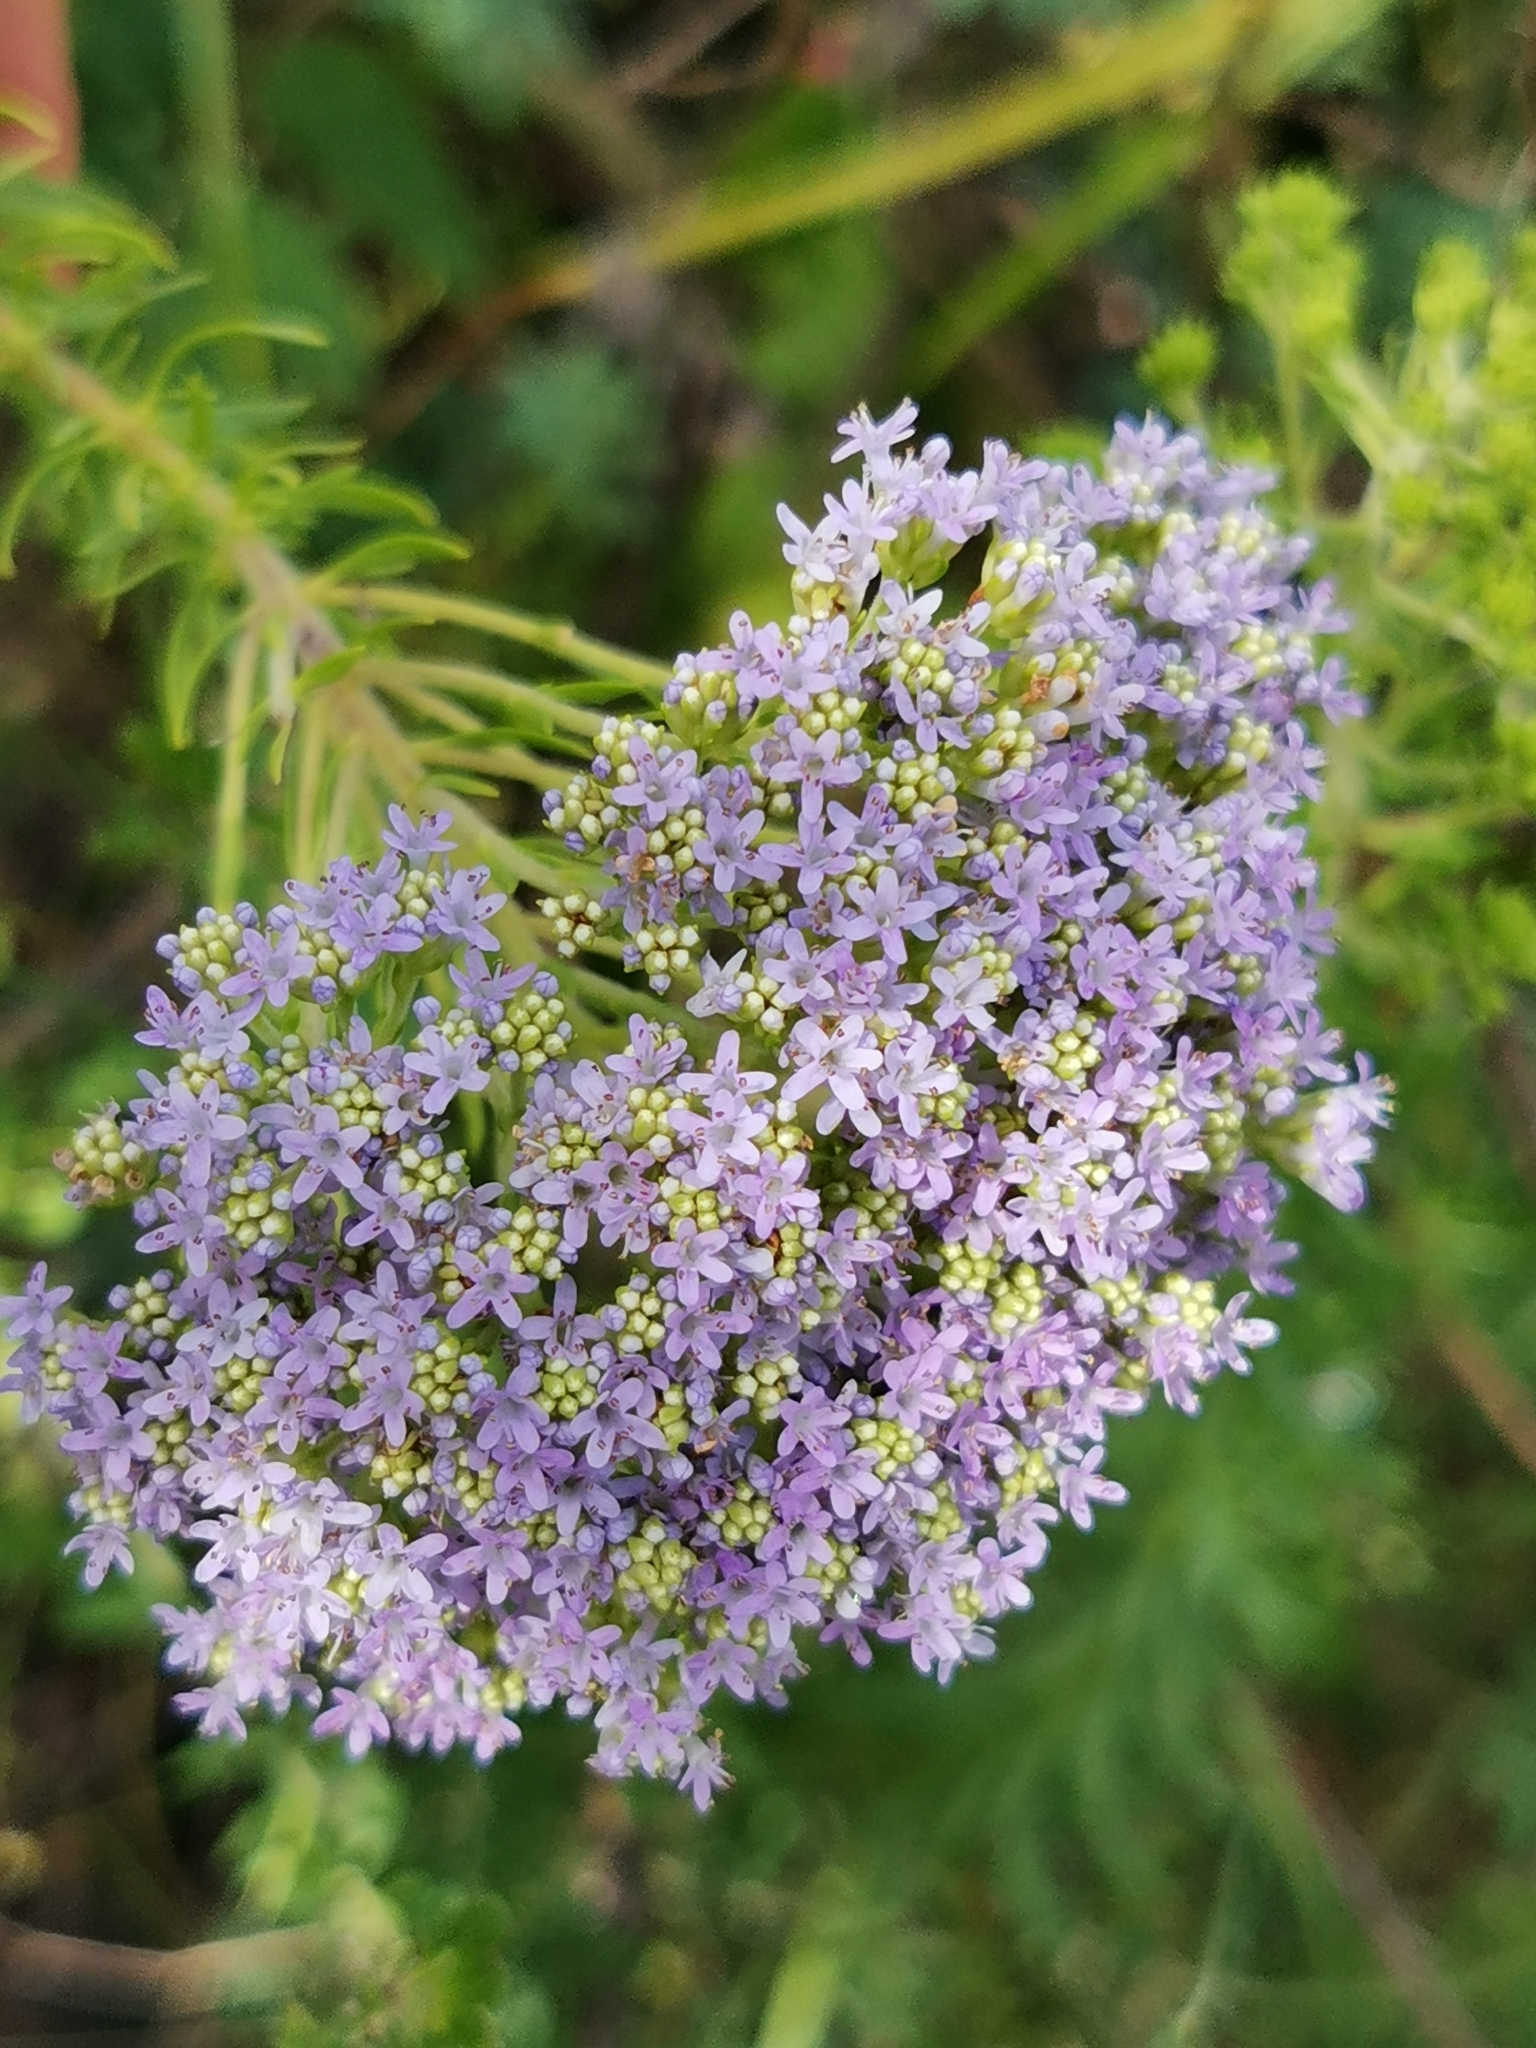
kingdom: Plantae
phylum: Tracheophyta
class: Magnoliopsida
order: Lamiales
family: Scrophulariaceae
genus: Tetraselago
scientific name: Tetraselago natalensis
